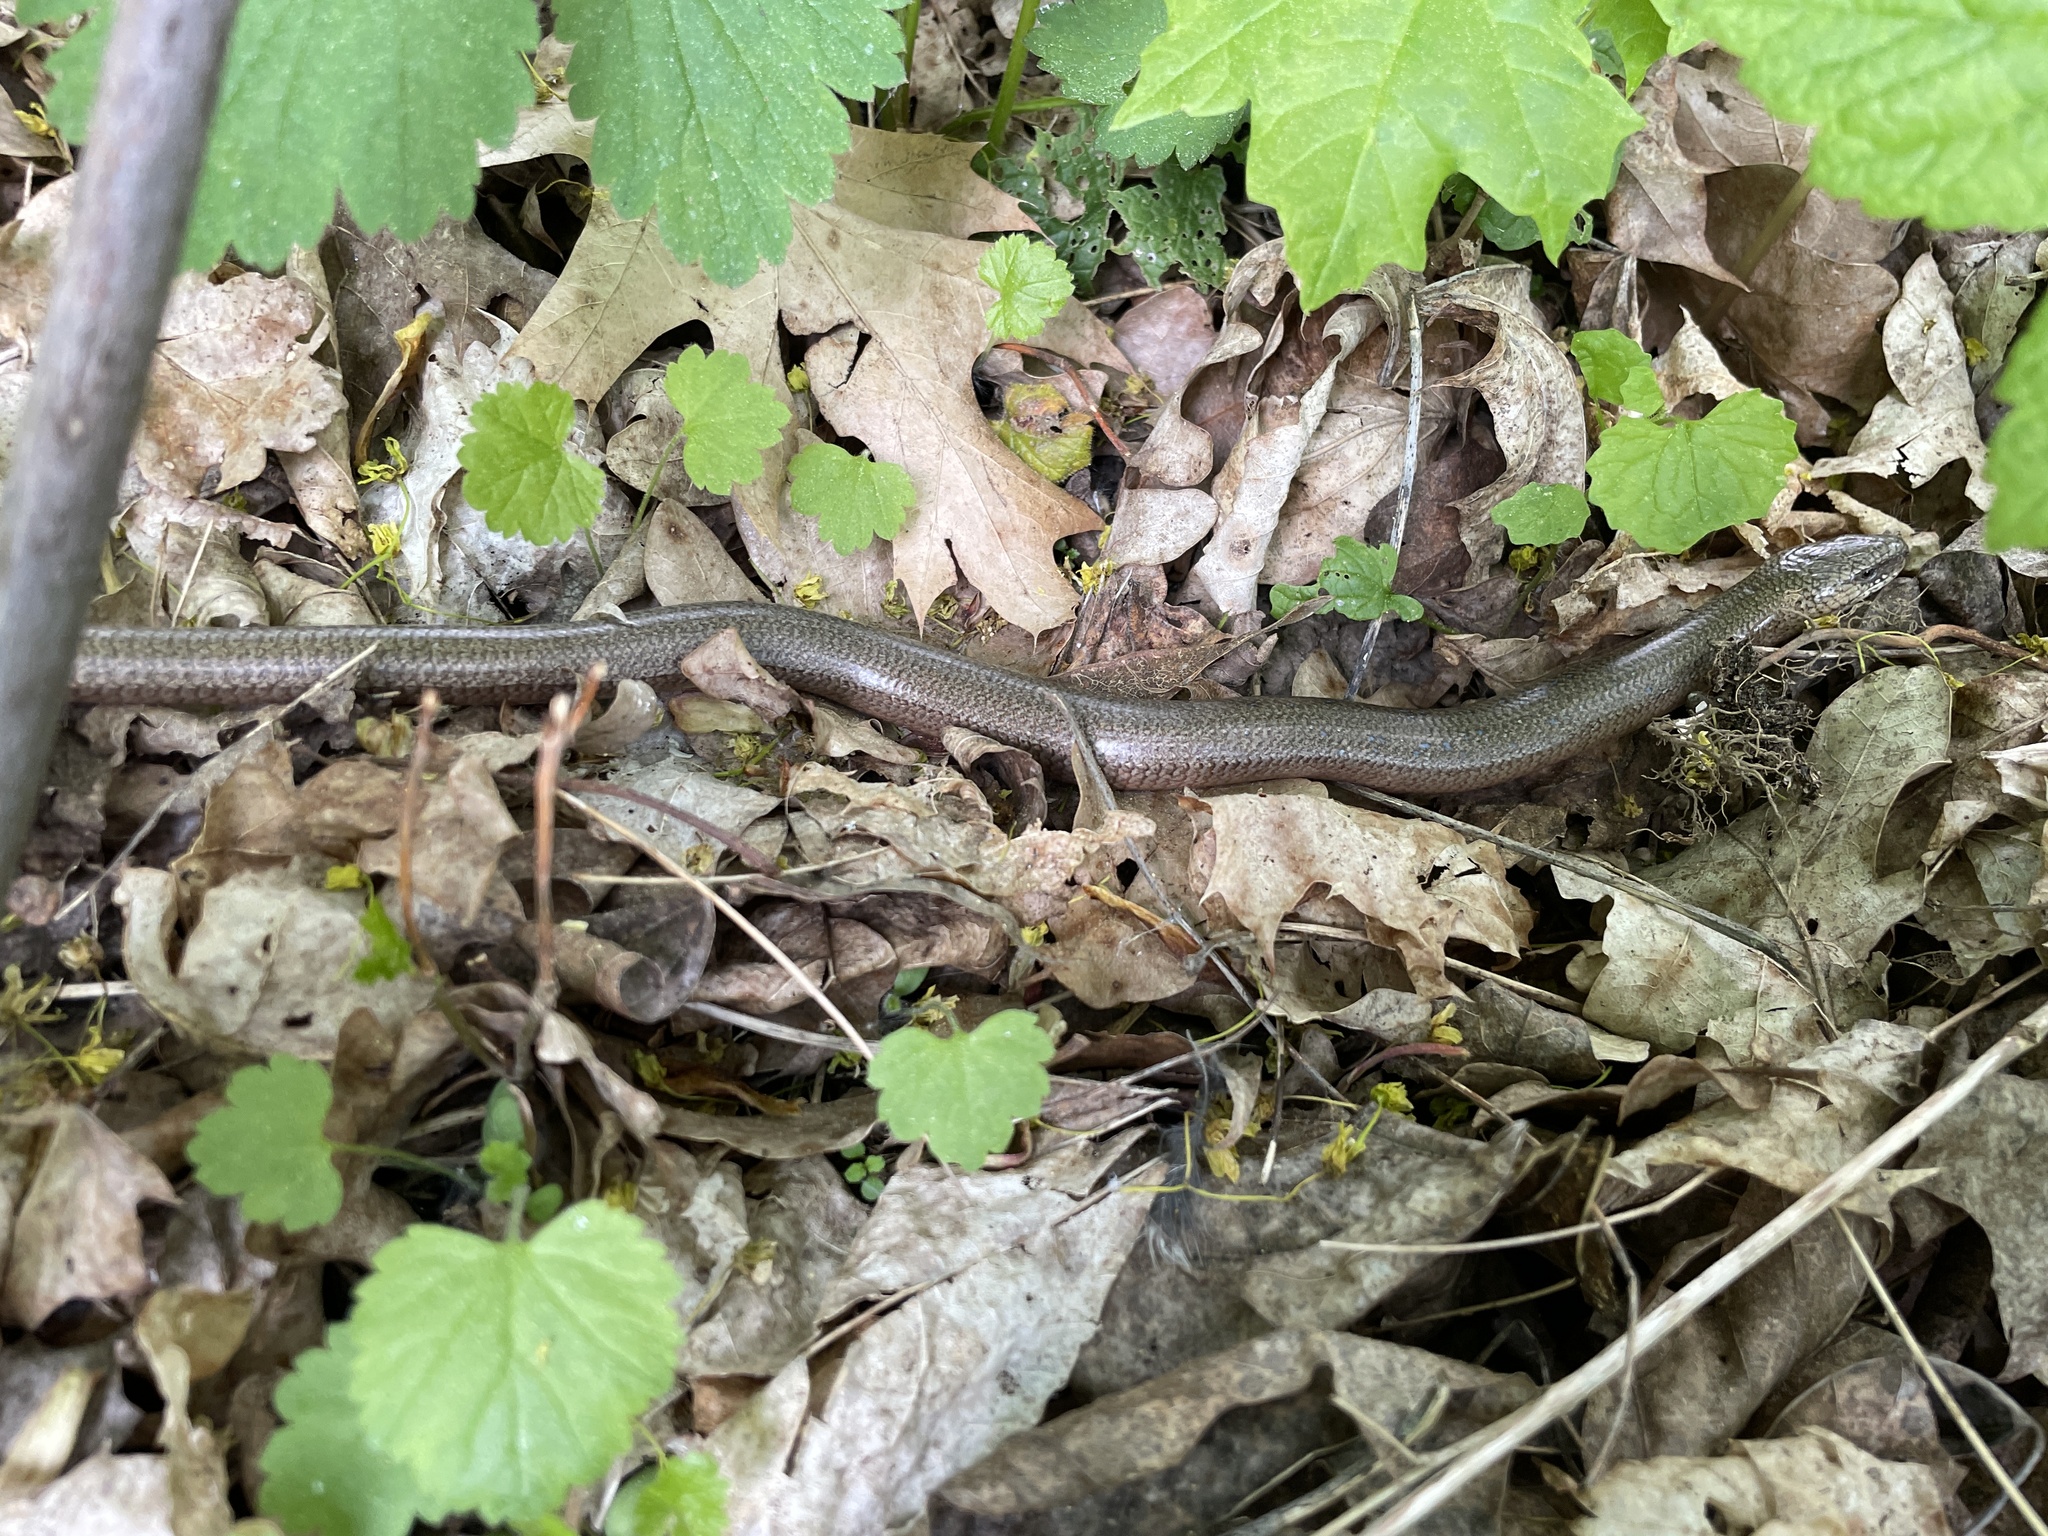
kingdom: Animalia
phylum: Chordata
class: Squamata
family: Anguidae
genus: Anguis
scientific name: Anguis fragilis
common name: Slow worm
